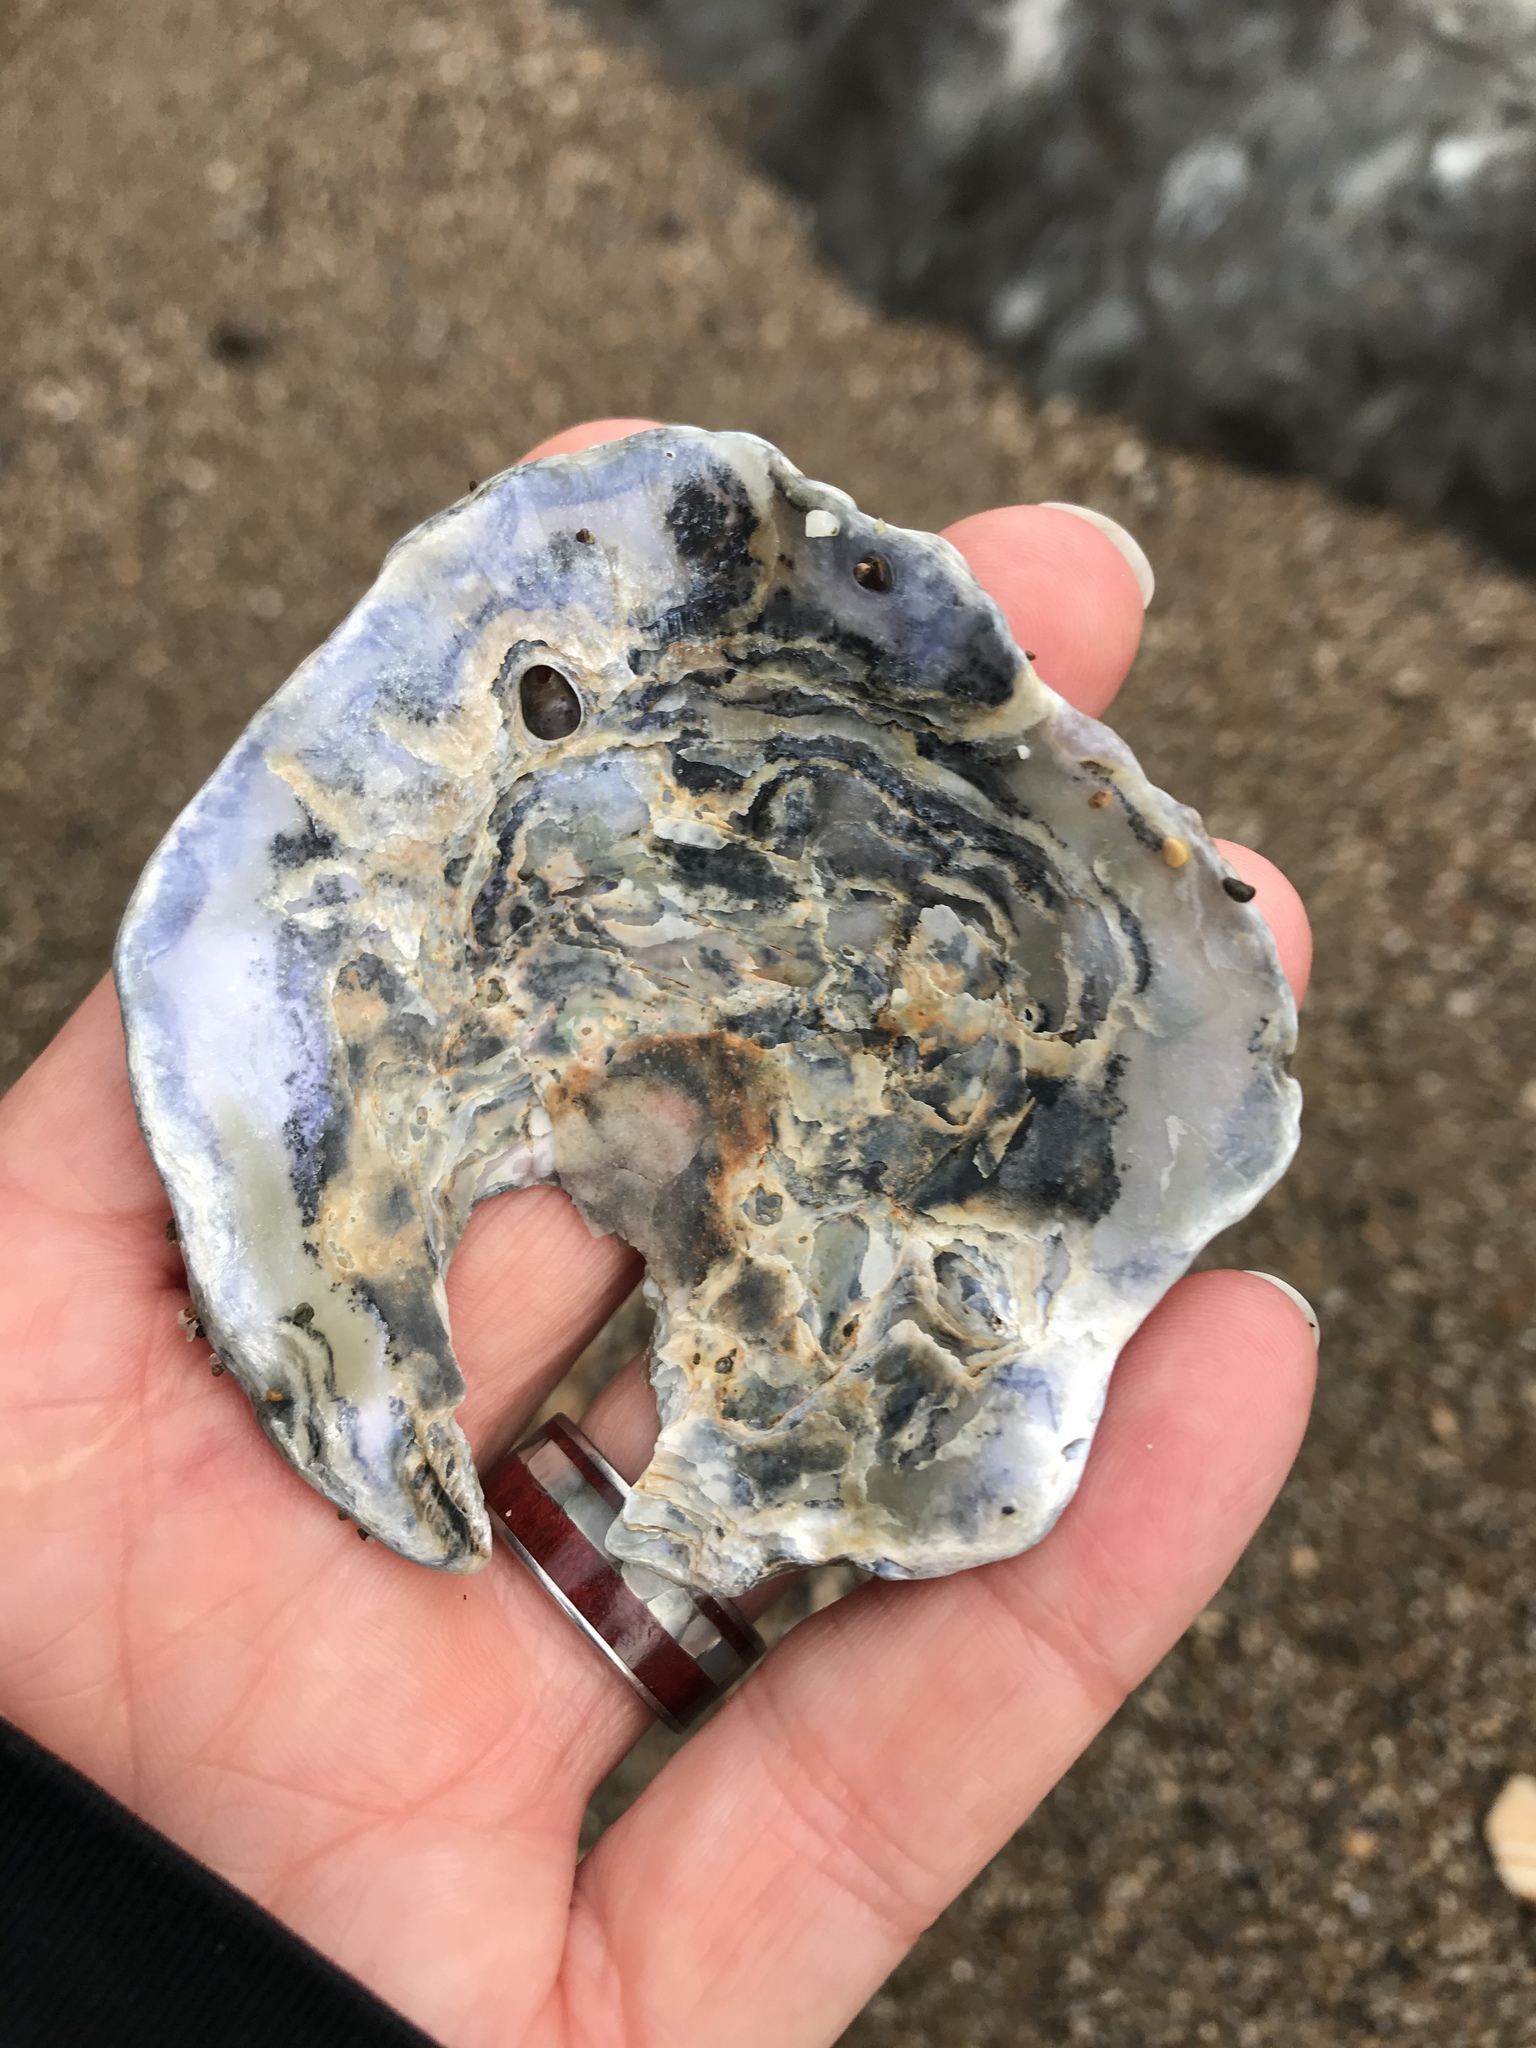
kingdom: Animalia
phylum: Mollusca
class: Bivalvia
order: Pectinida
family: Anomiidae
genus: Pododesmus
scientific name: Pododesmus macrochisma
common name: Alaska jingle
